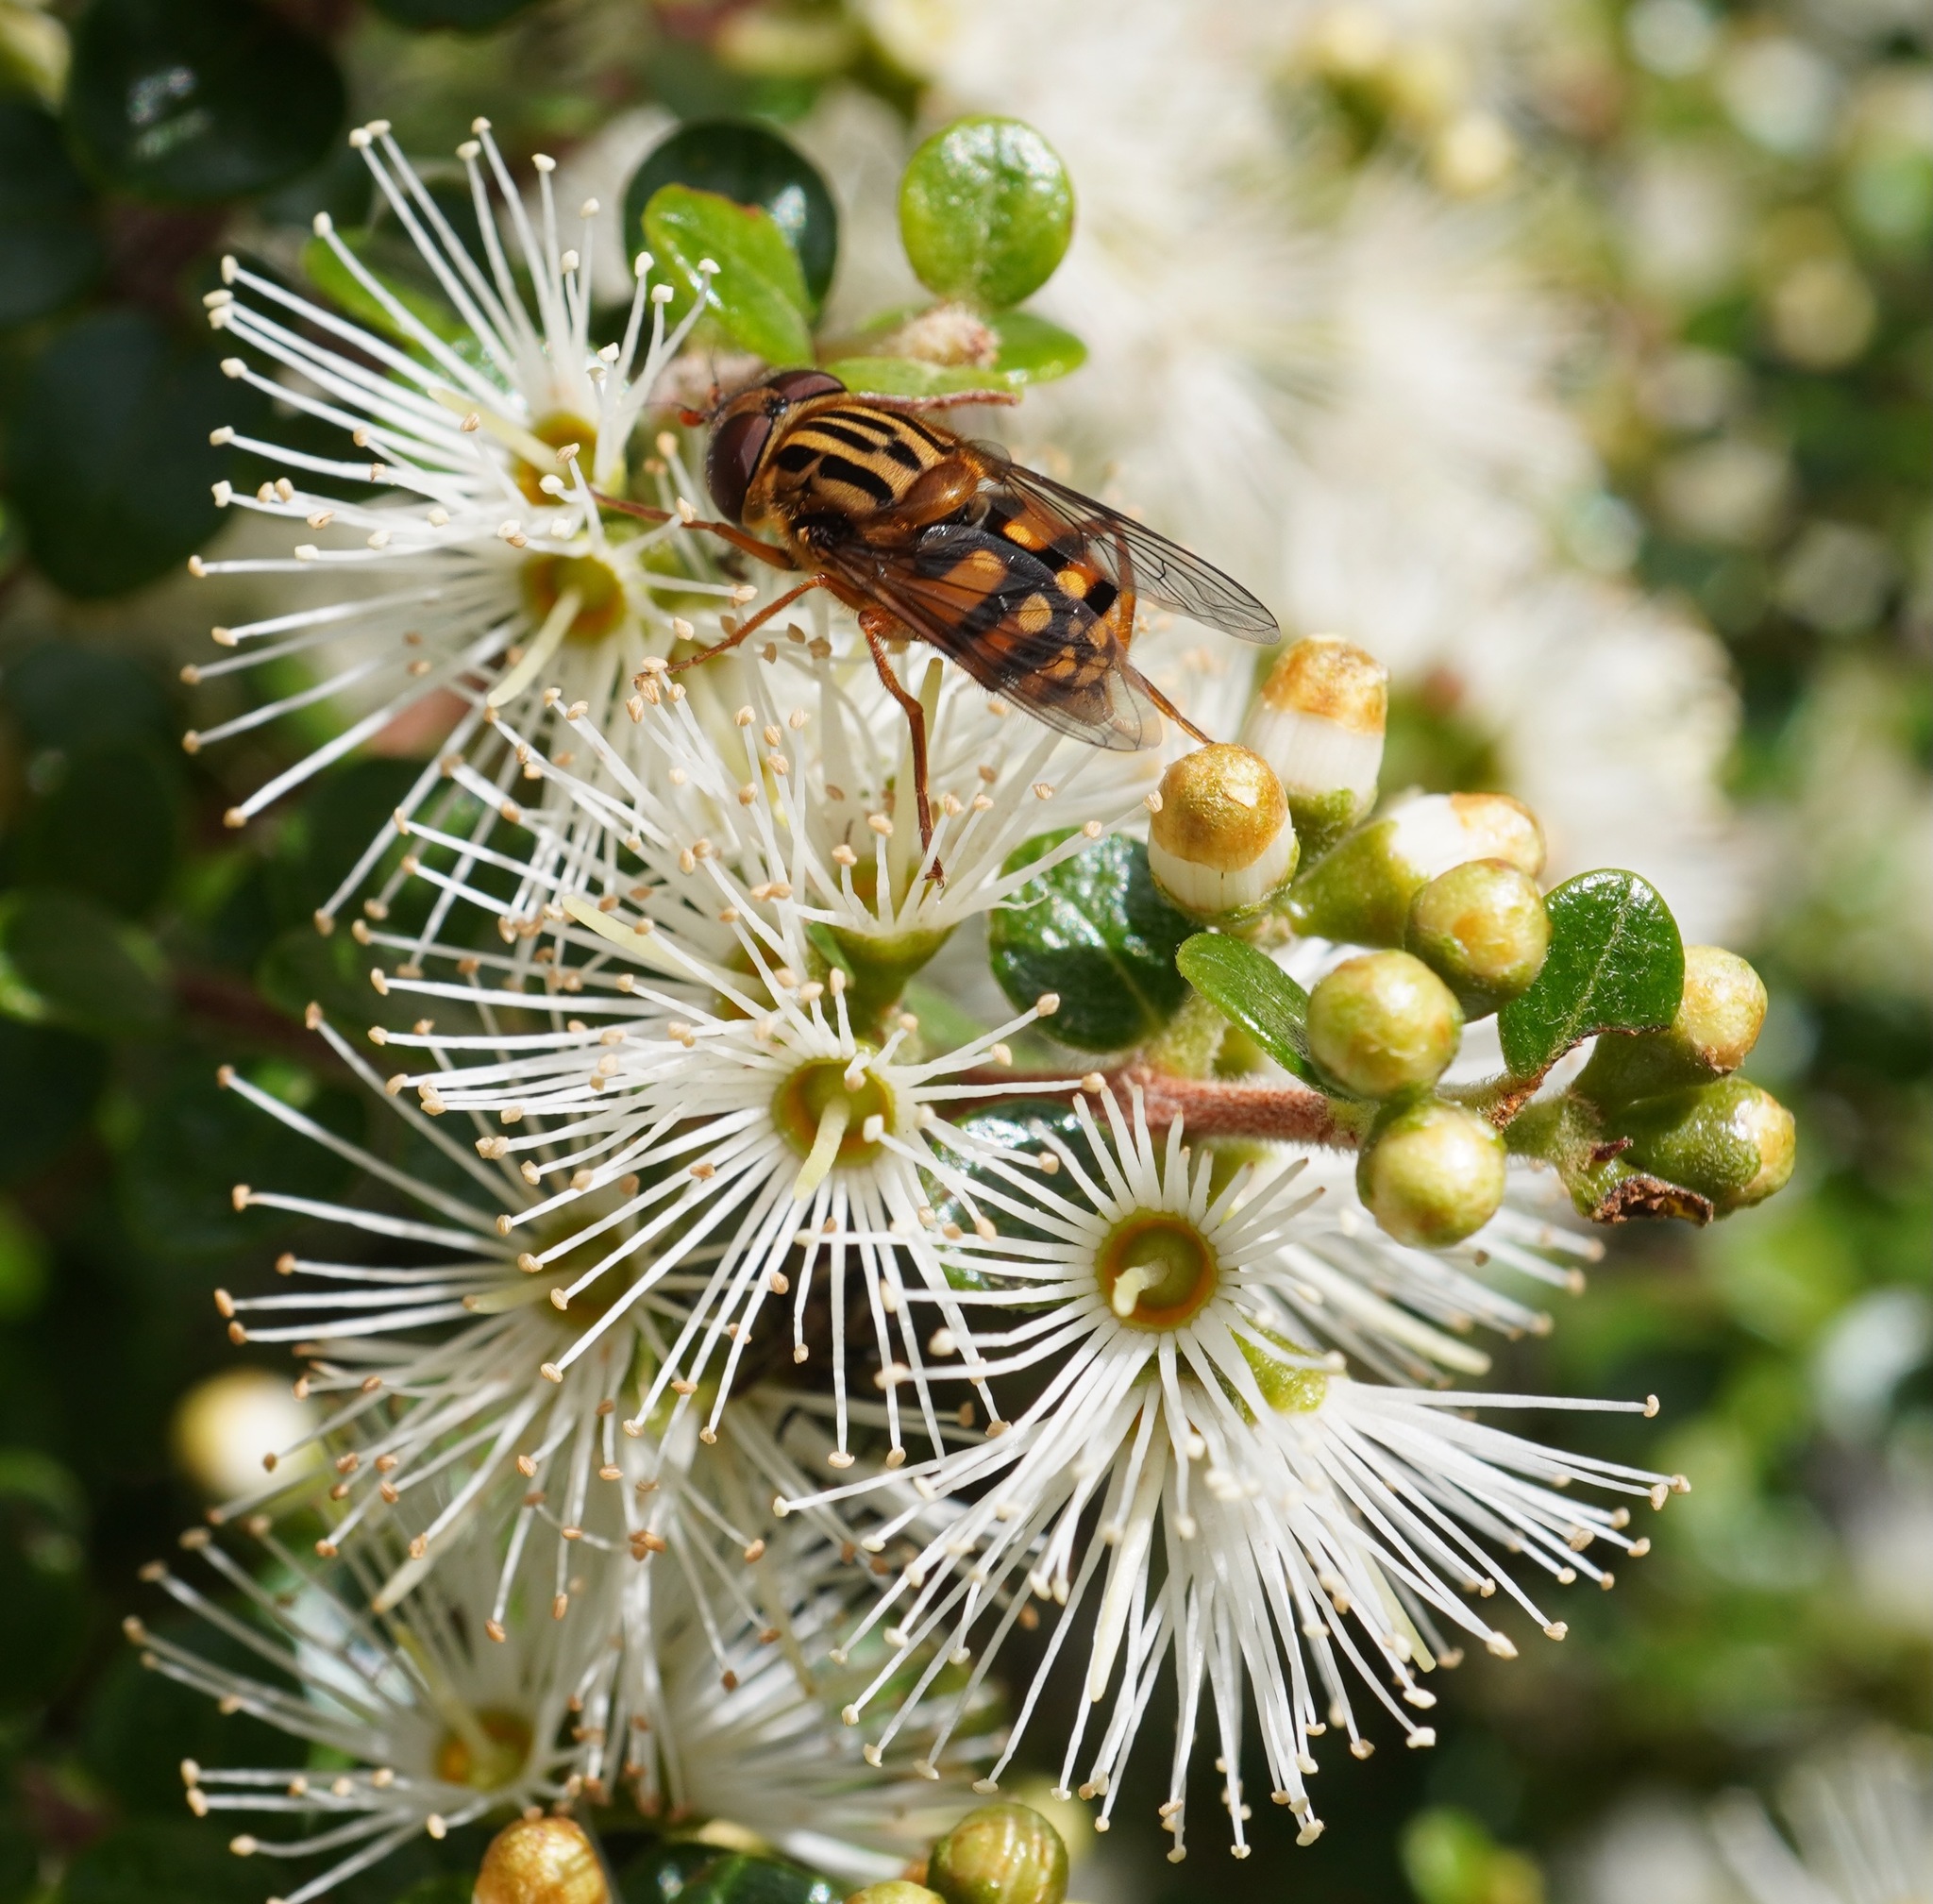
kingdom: Animalia
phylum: Arthropoda
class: Insecta
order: Diptera
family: Syrphidae
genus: Helophilus
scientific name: Helophilus campbelli
